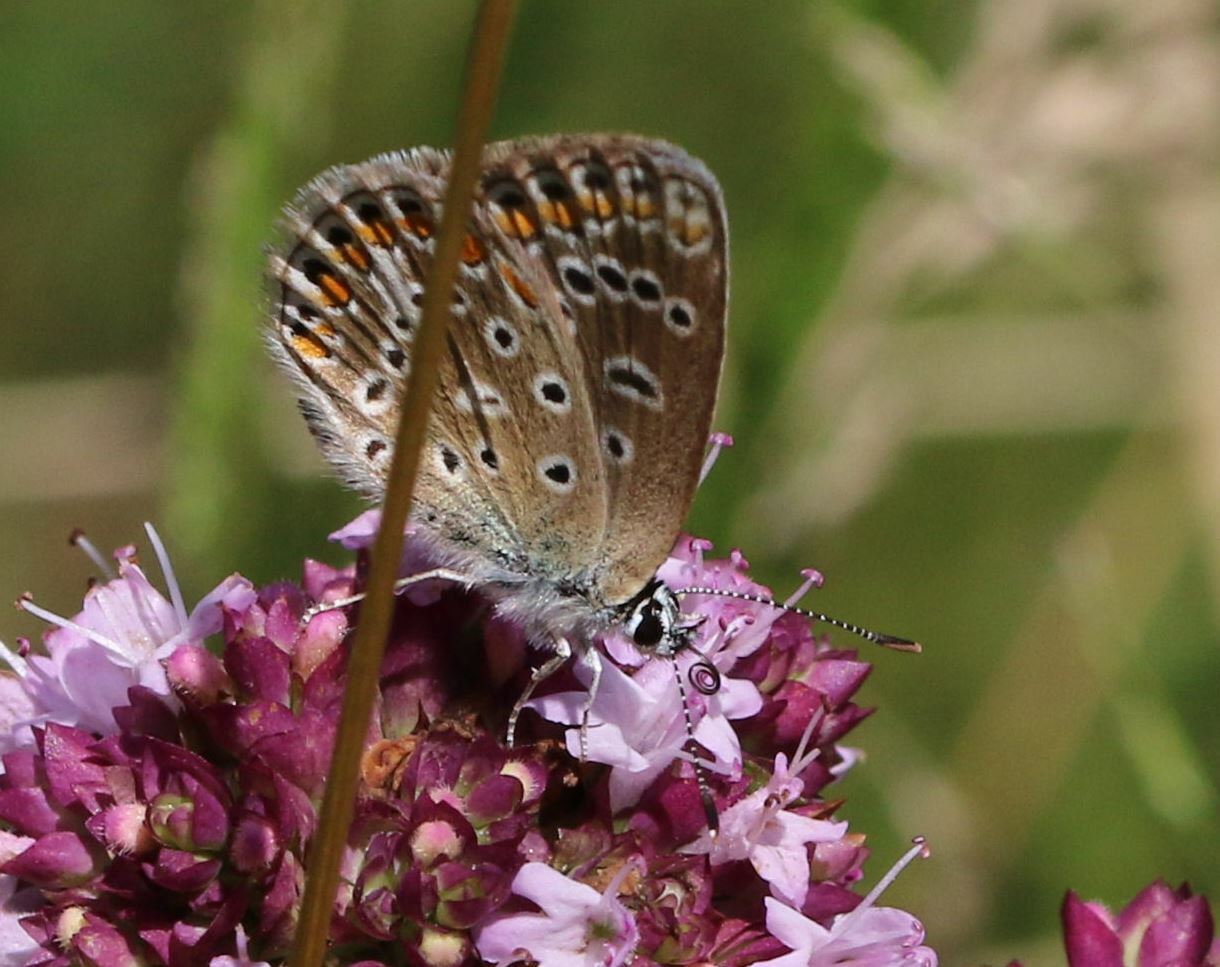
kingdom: Animalia
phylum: Arthropoda
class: Insecta
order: Lepidoptera
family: Lycaenidae
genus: Polyommatus
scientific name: Polyommatus icarus
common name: Common blue
